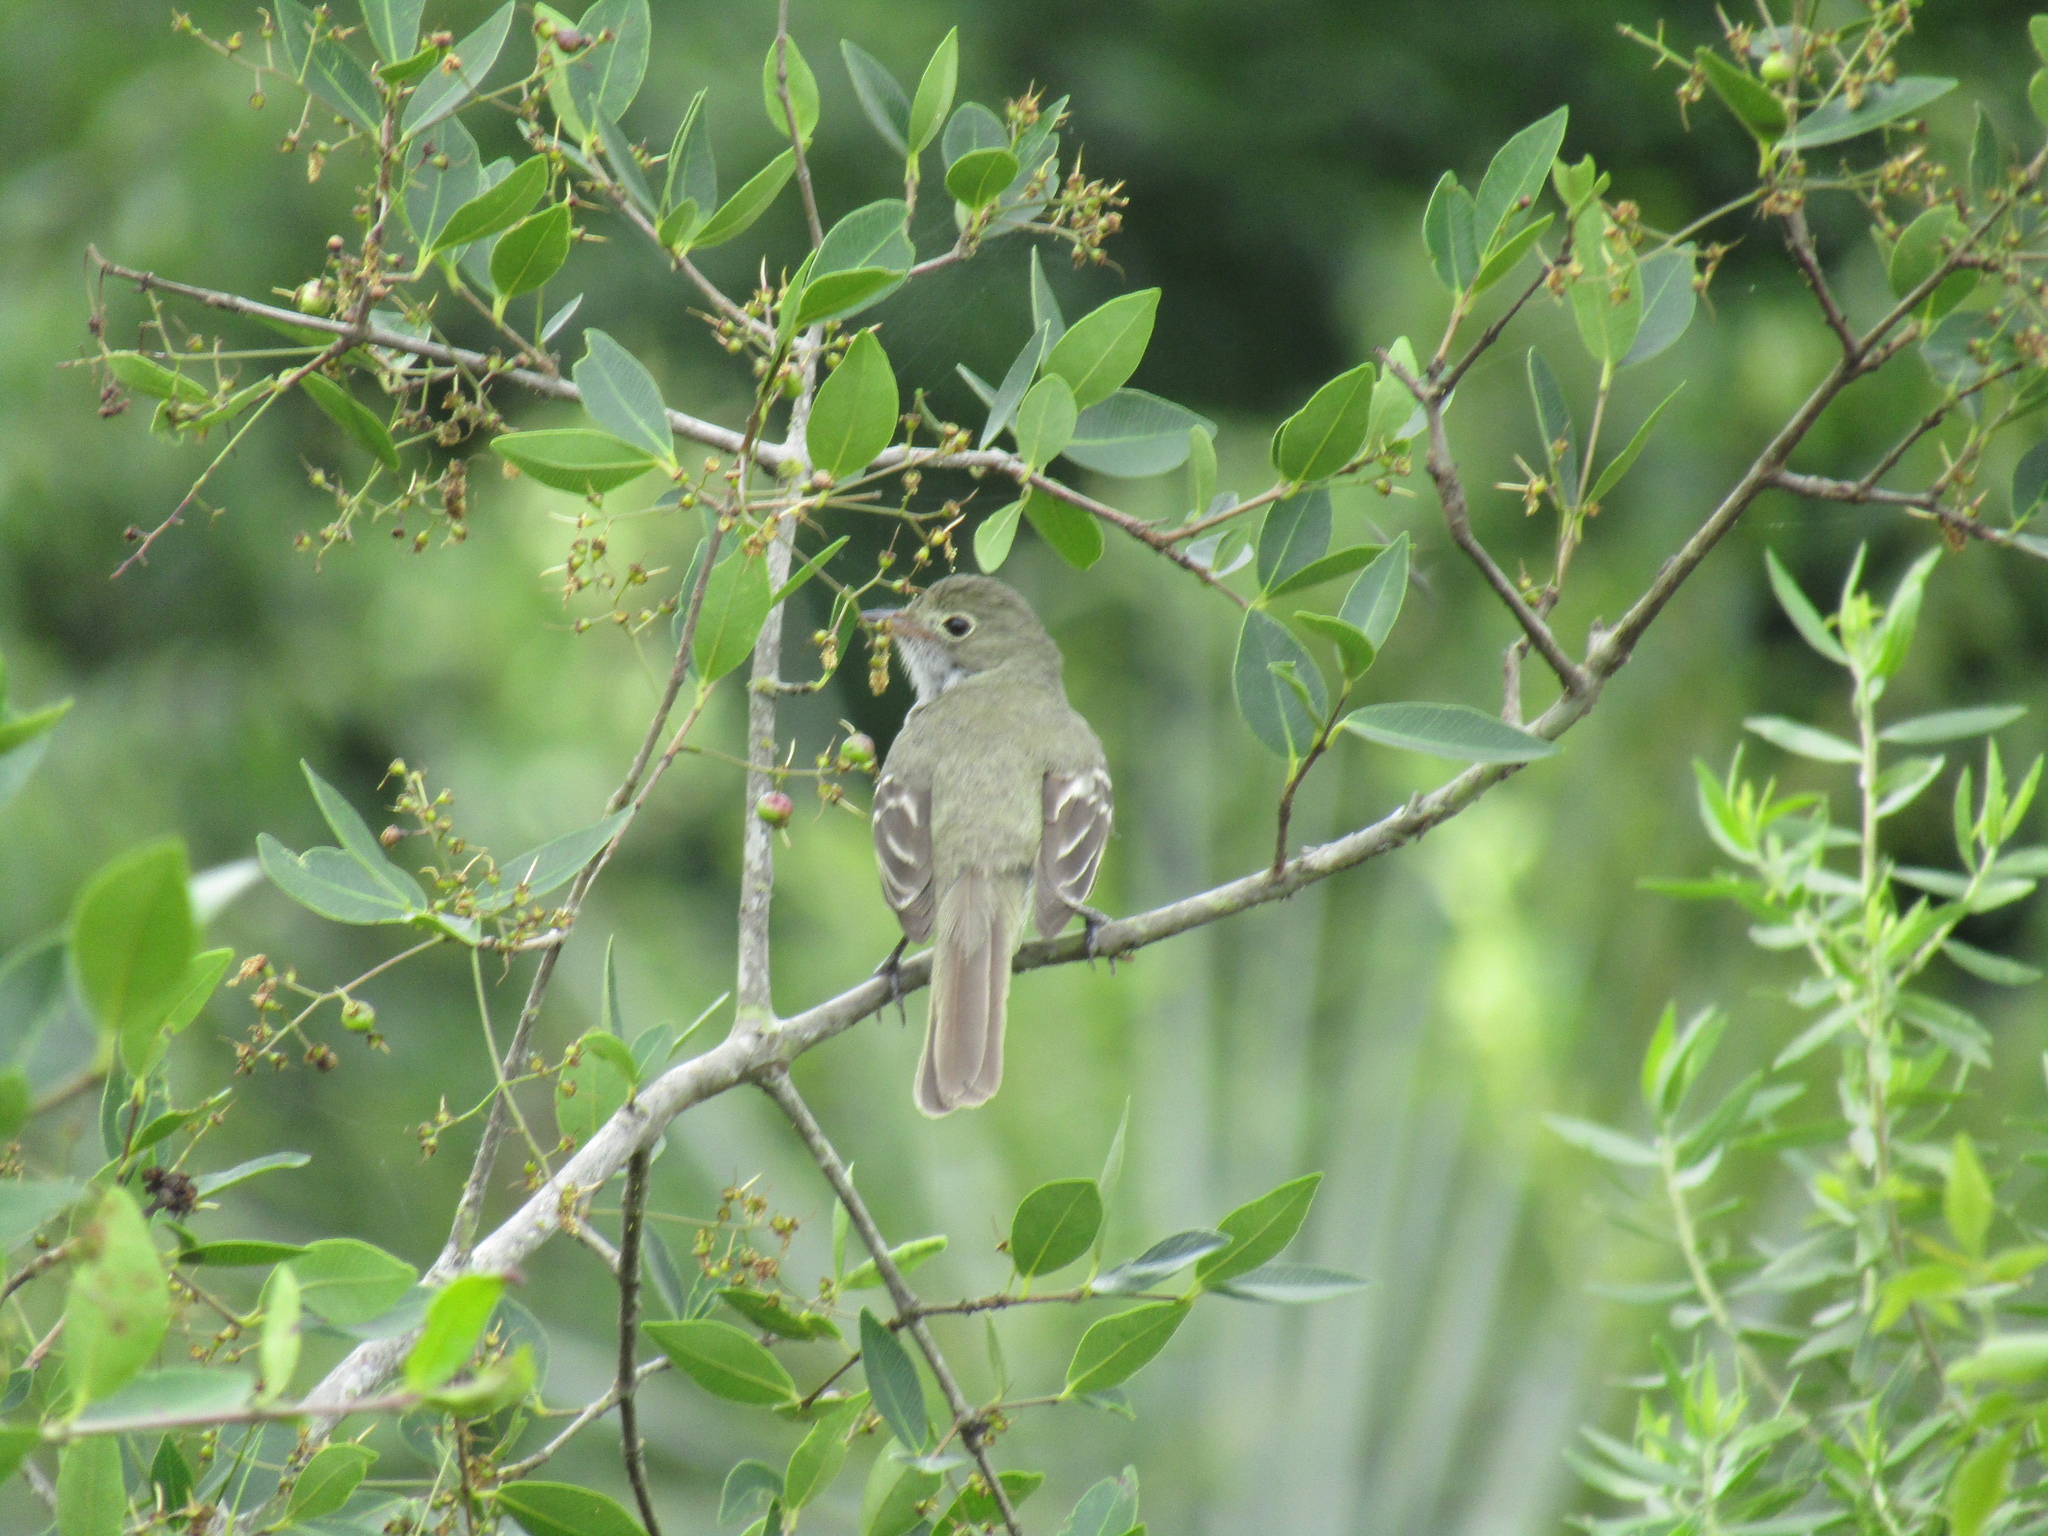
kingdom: Animalia
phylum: Chordata
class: Aves
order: Passeriformes
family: Tyrannidae
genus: Elaenia
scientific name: Elaenia parvirostris
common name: Small-billed elaenia
